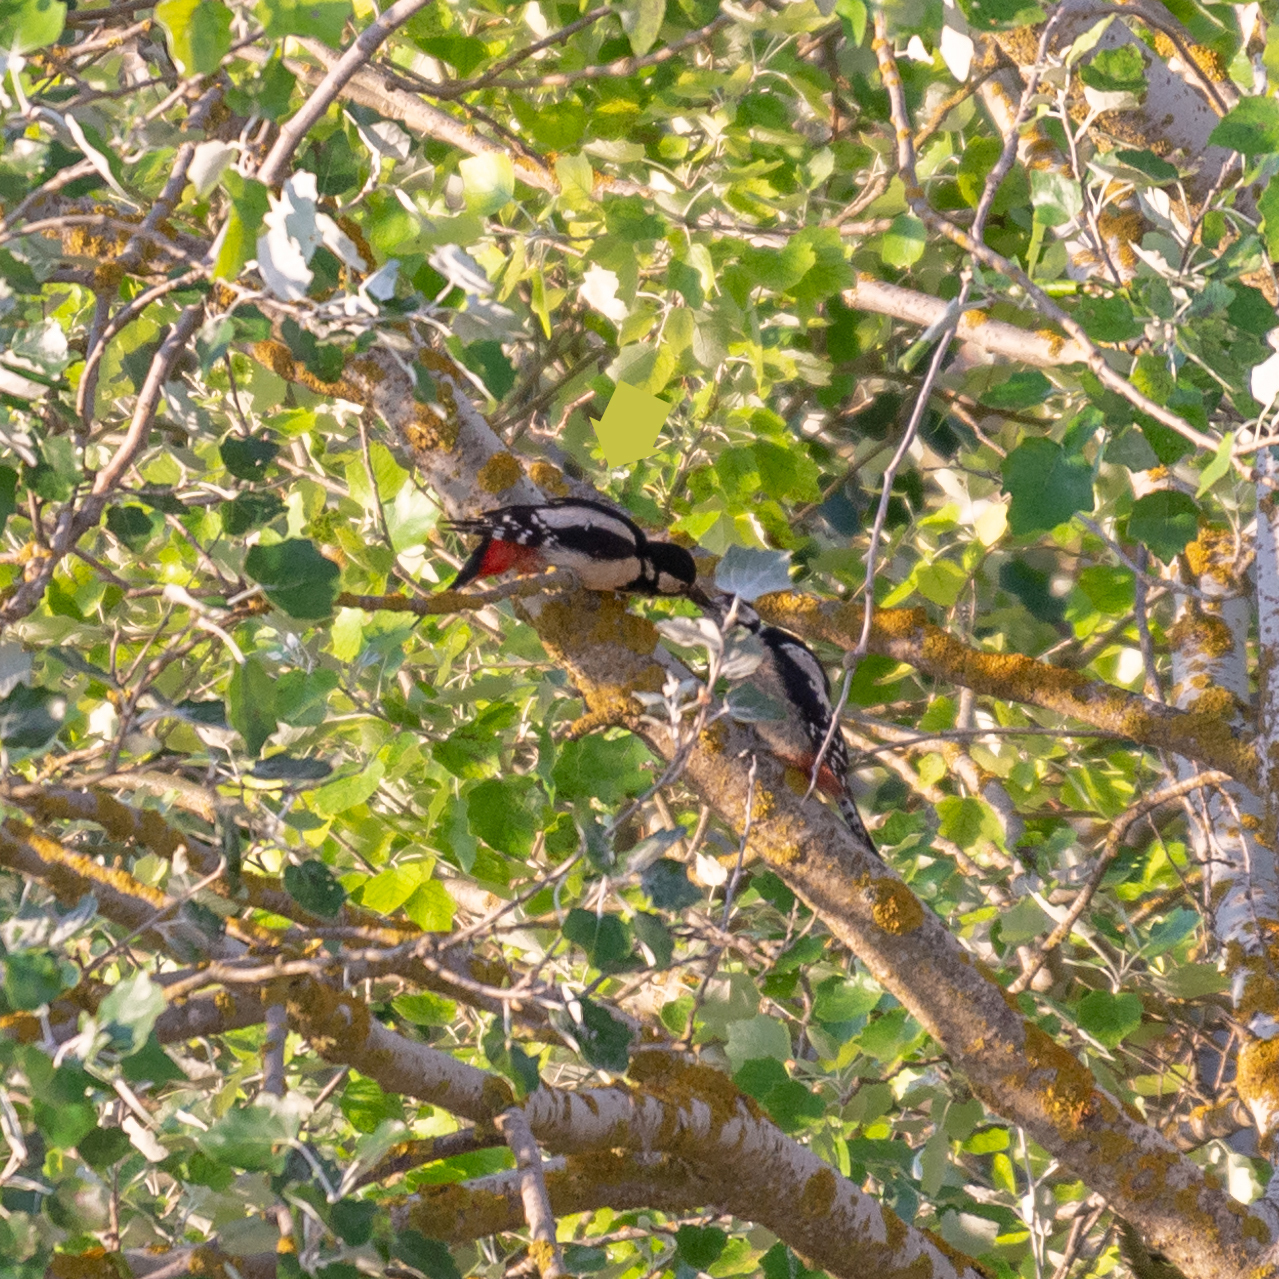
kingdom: Animalia
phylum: Chordata
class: Aves
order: Piciformes
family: Picidae
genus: Dendrocopos
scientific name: Dendrocopos major
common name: Great spotted woodpecker
